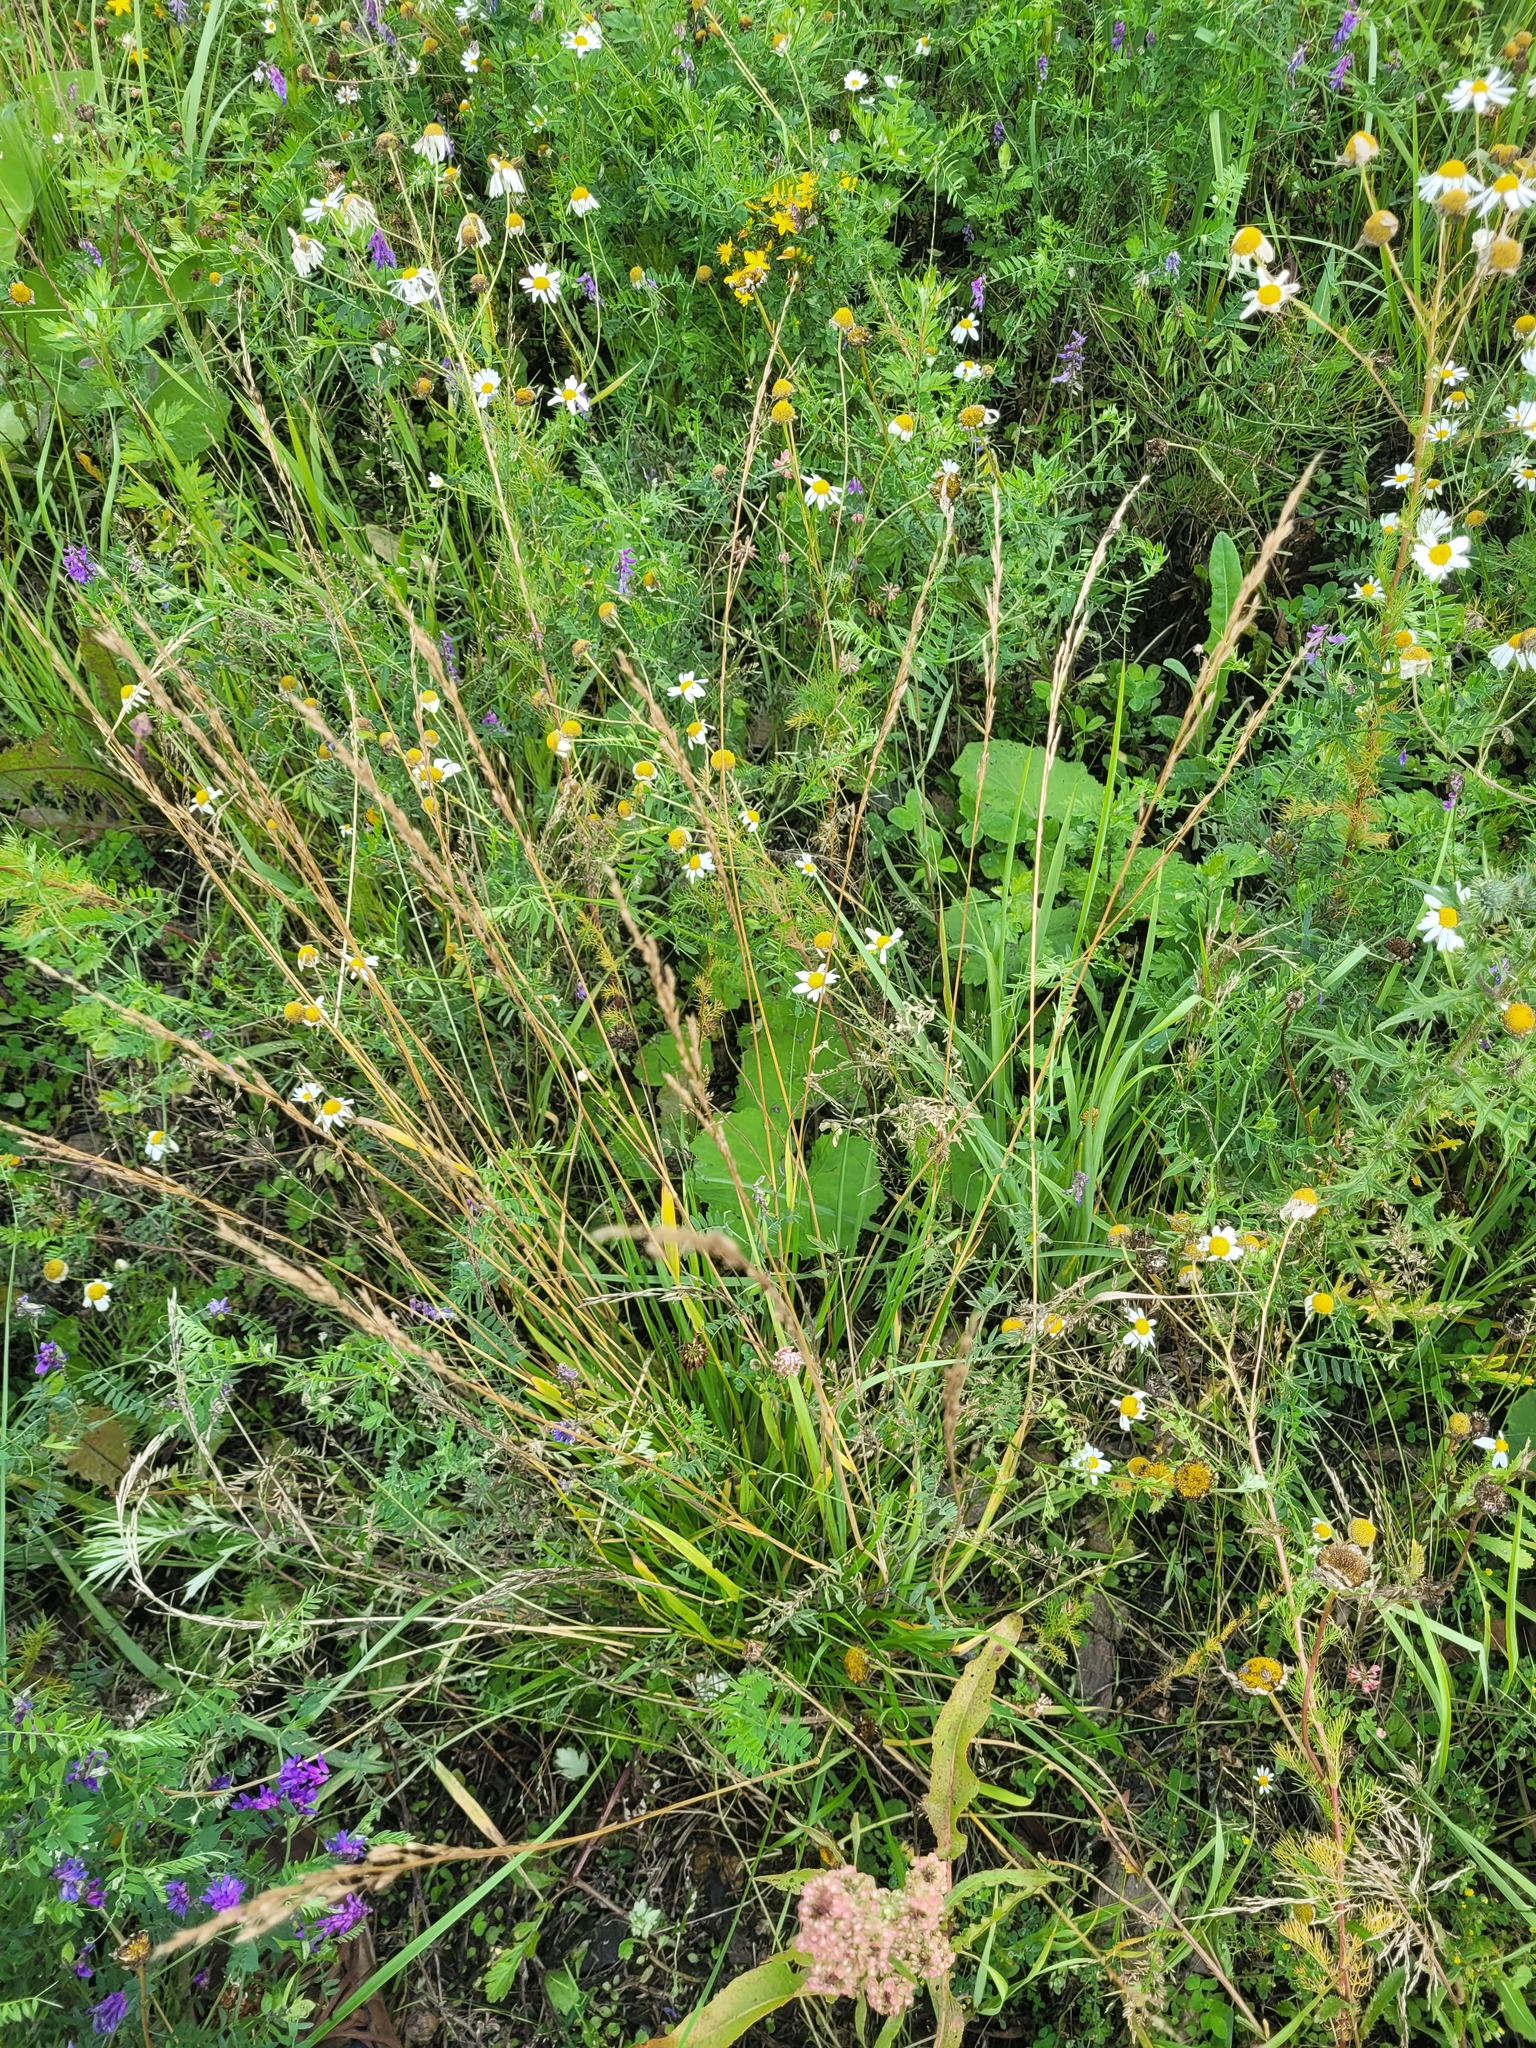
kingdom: Plantae
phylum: Tracheophyta
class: Liliopsida
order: Poales
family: Poaceae
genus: Lolium
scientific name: Lolium pratense
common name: Dover grass
